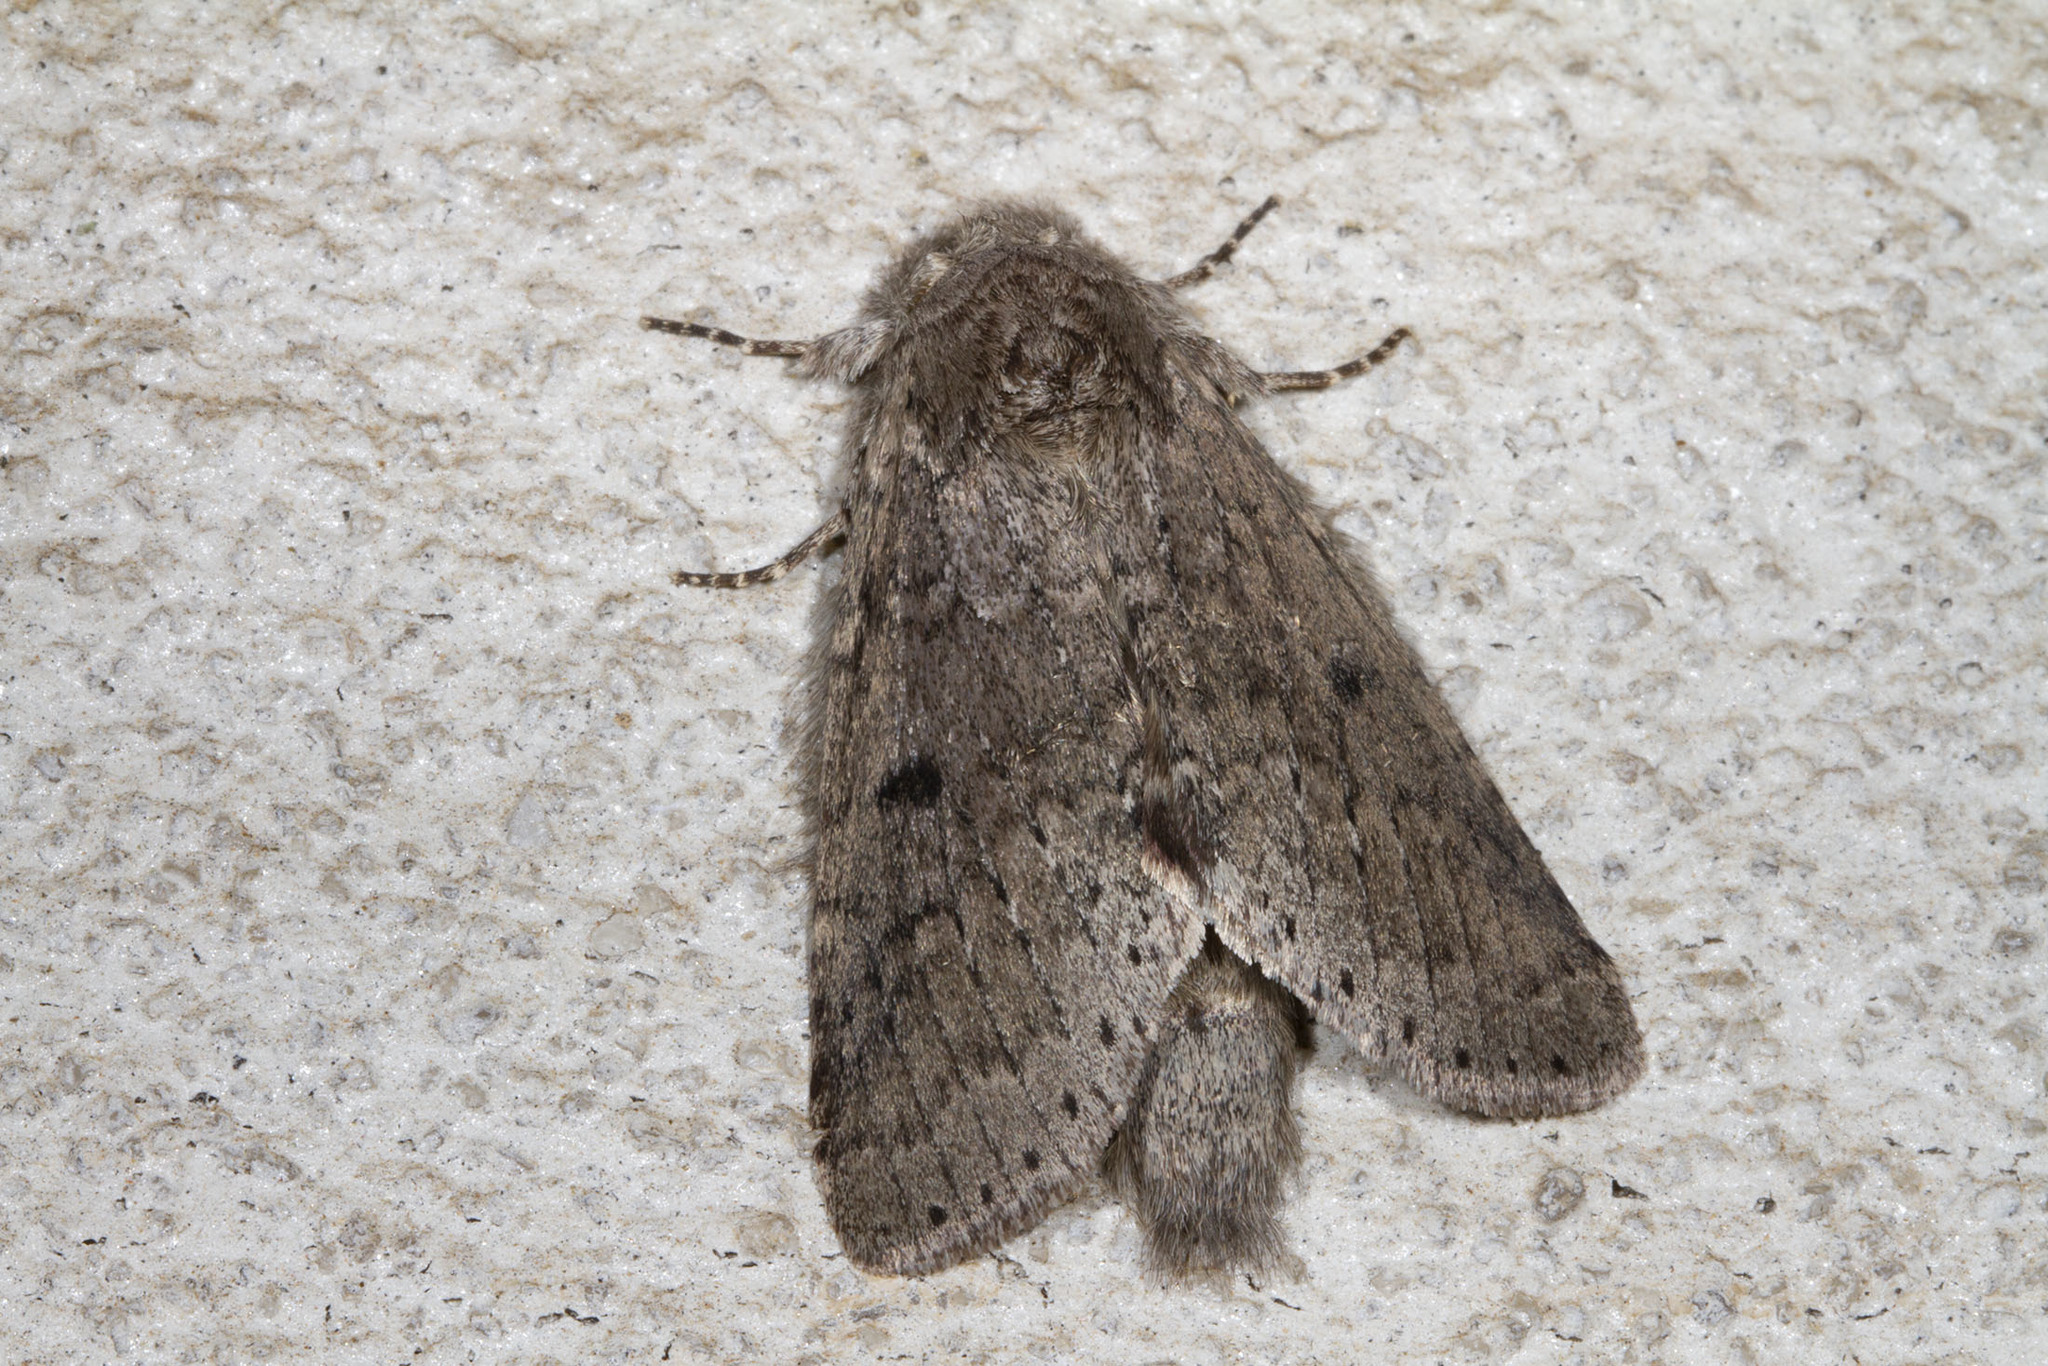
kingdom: Animalia
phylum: Arthropoda
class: Insecta
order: Lepidoptera
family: Notodontidae
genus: Lochmaeus
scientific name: Lochmaeus manteo
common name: Variable oakleaf caterpillar moth
